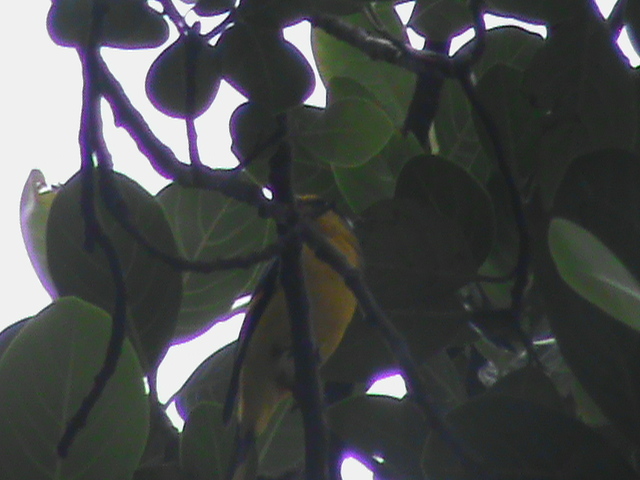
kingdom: Animalia
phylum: Chordata
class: Aves
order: Passeriformes
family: Campephagidae
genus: Pericrocotus
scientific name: Pericrocotus flammeus
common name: Orange minivet
